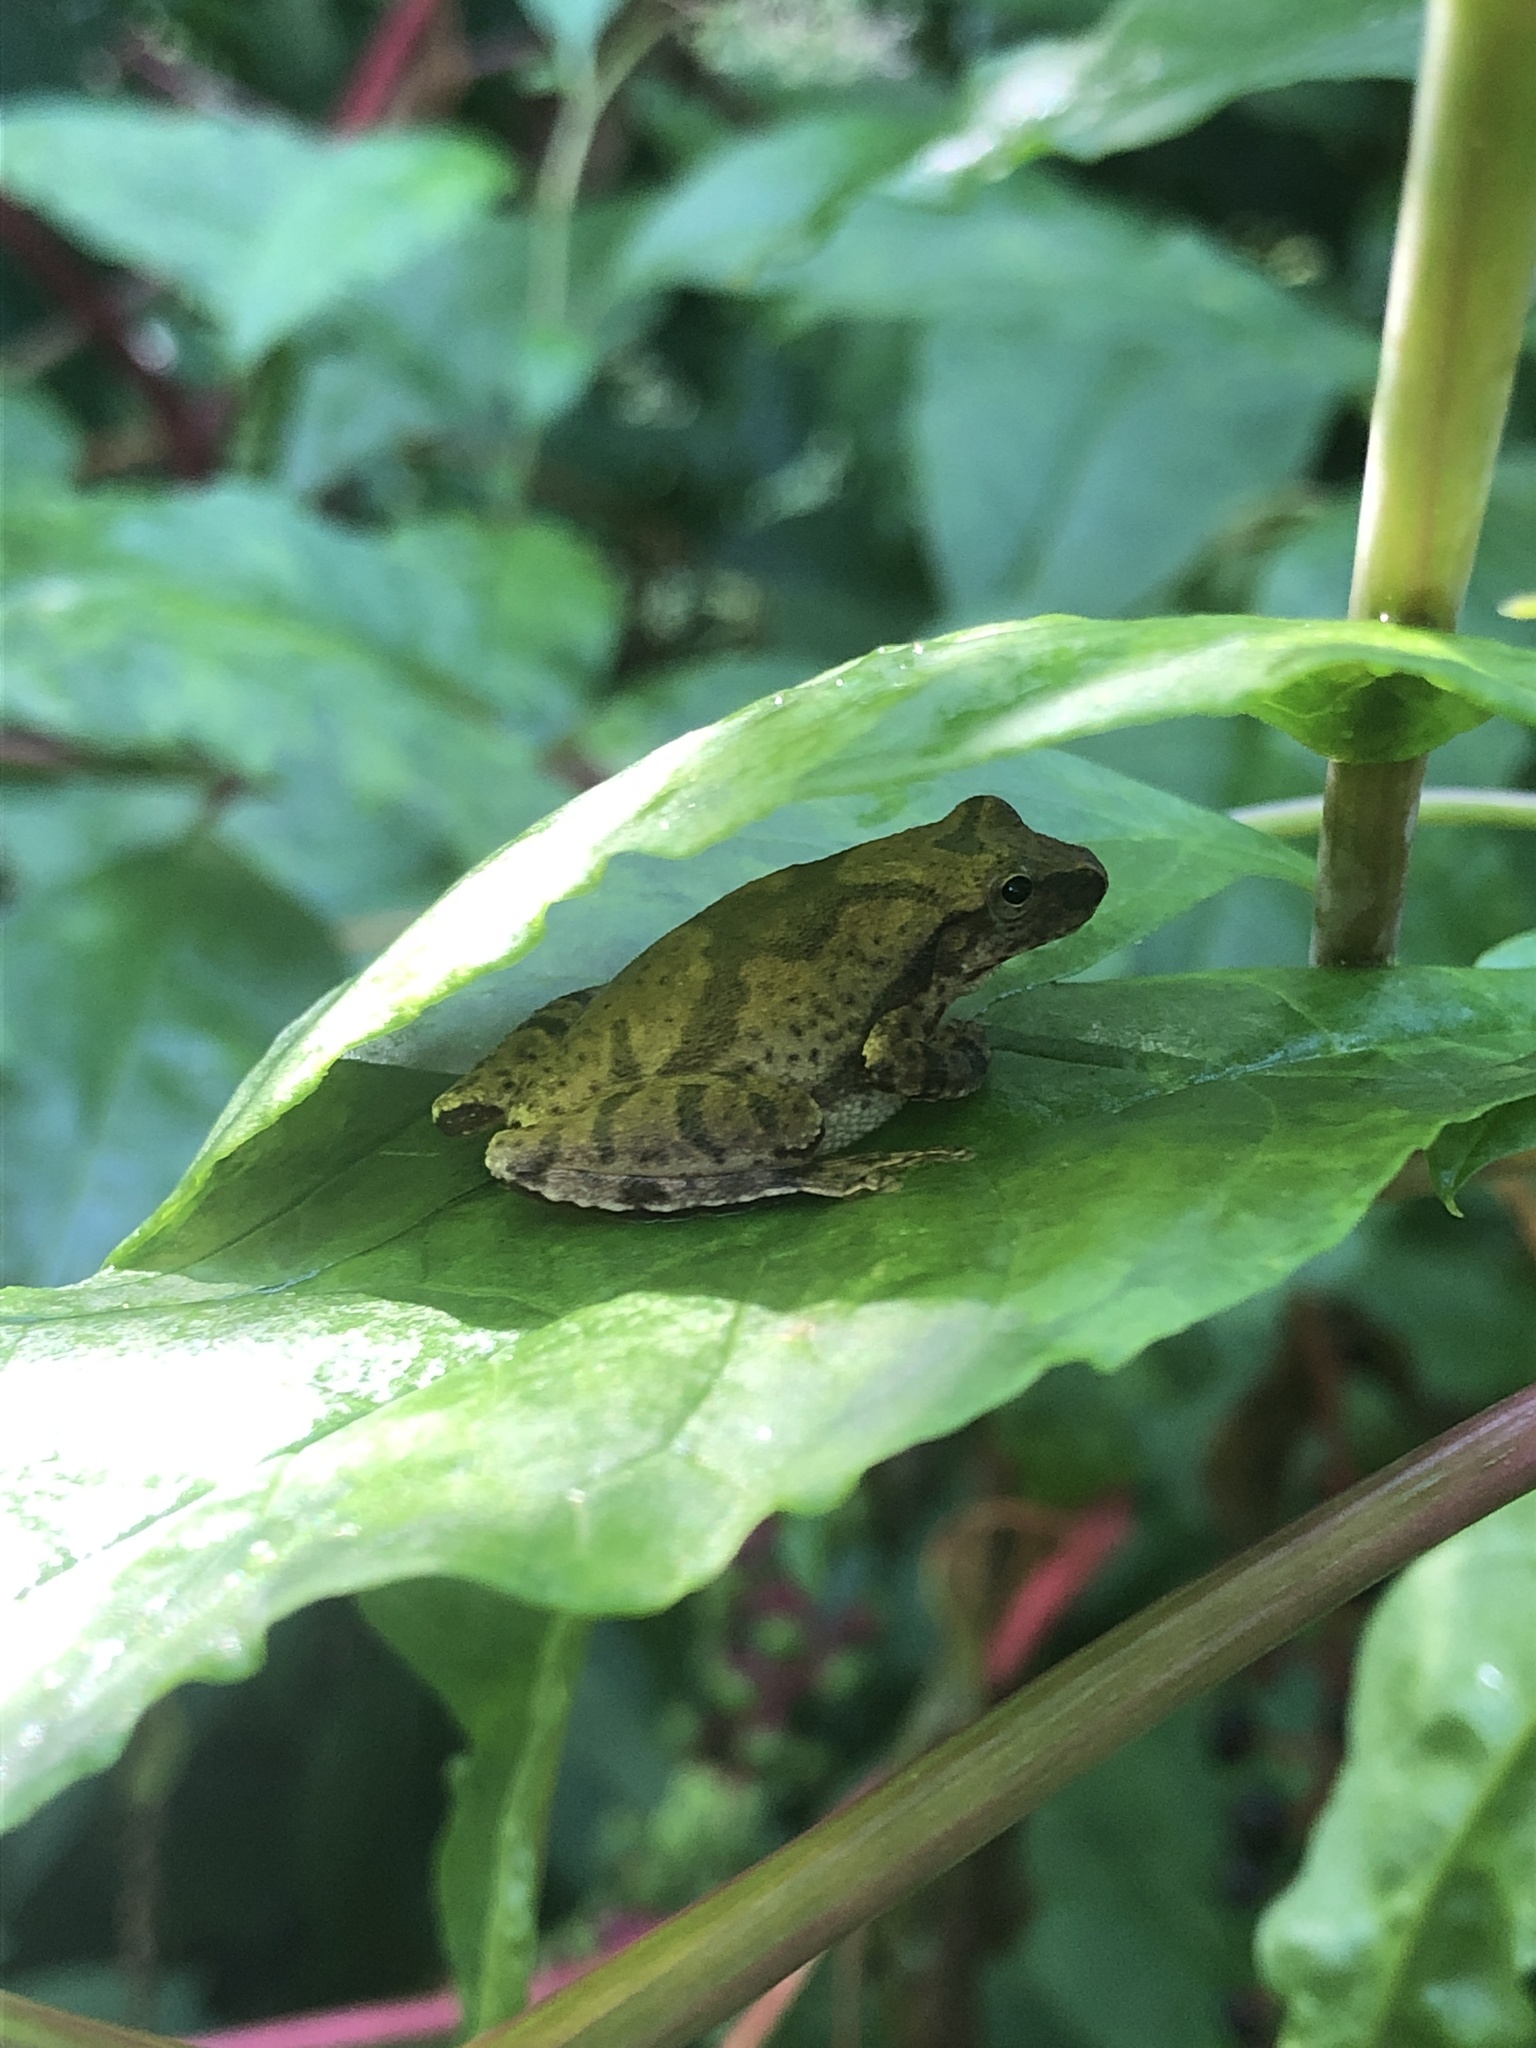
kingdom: Animalia
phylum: Chordata
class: Amphibia
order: Anura
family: Hylidae
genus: Pseudacris
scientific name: Pseudacris crucifer
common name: Spring peeper
